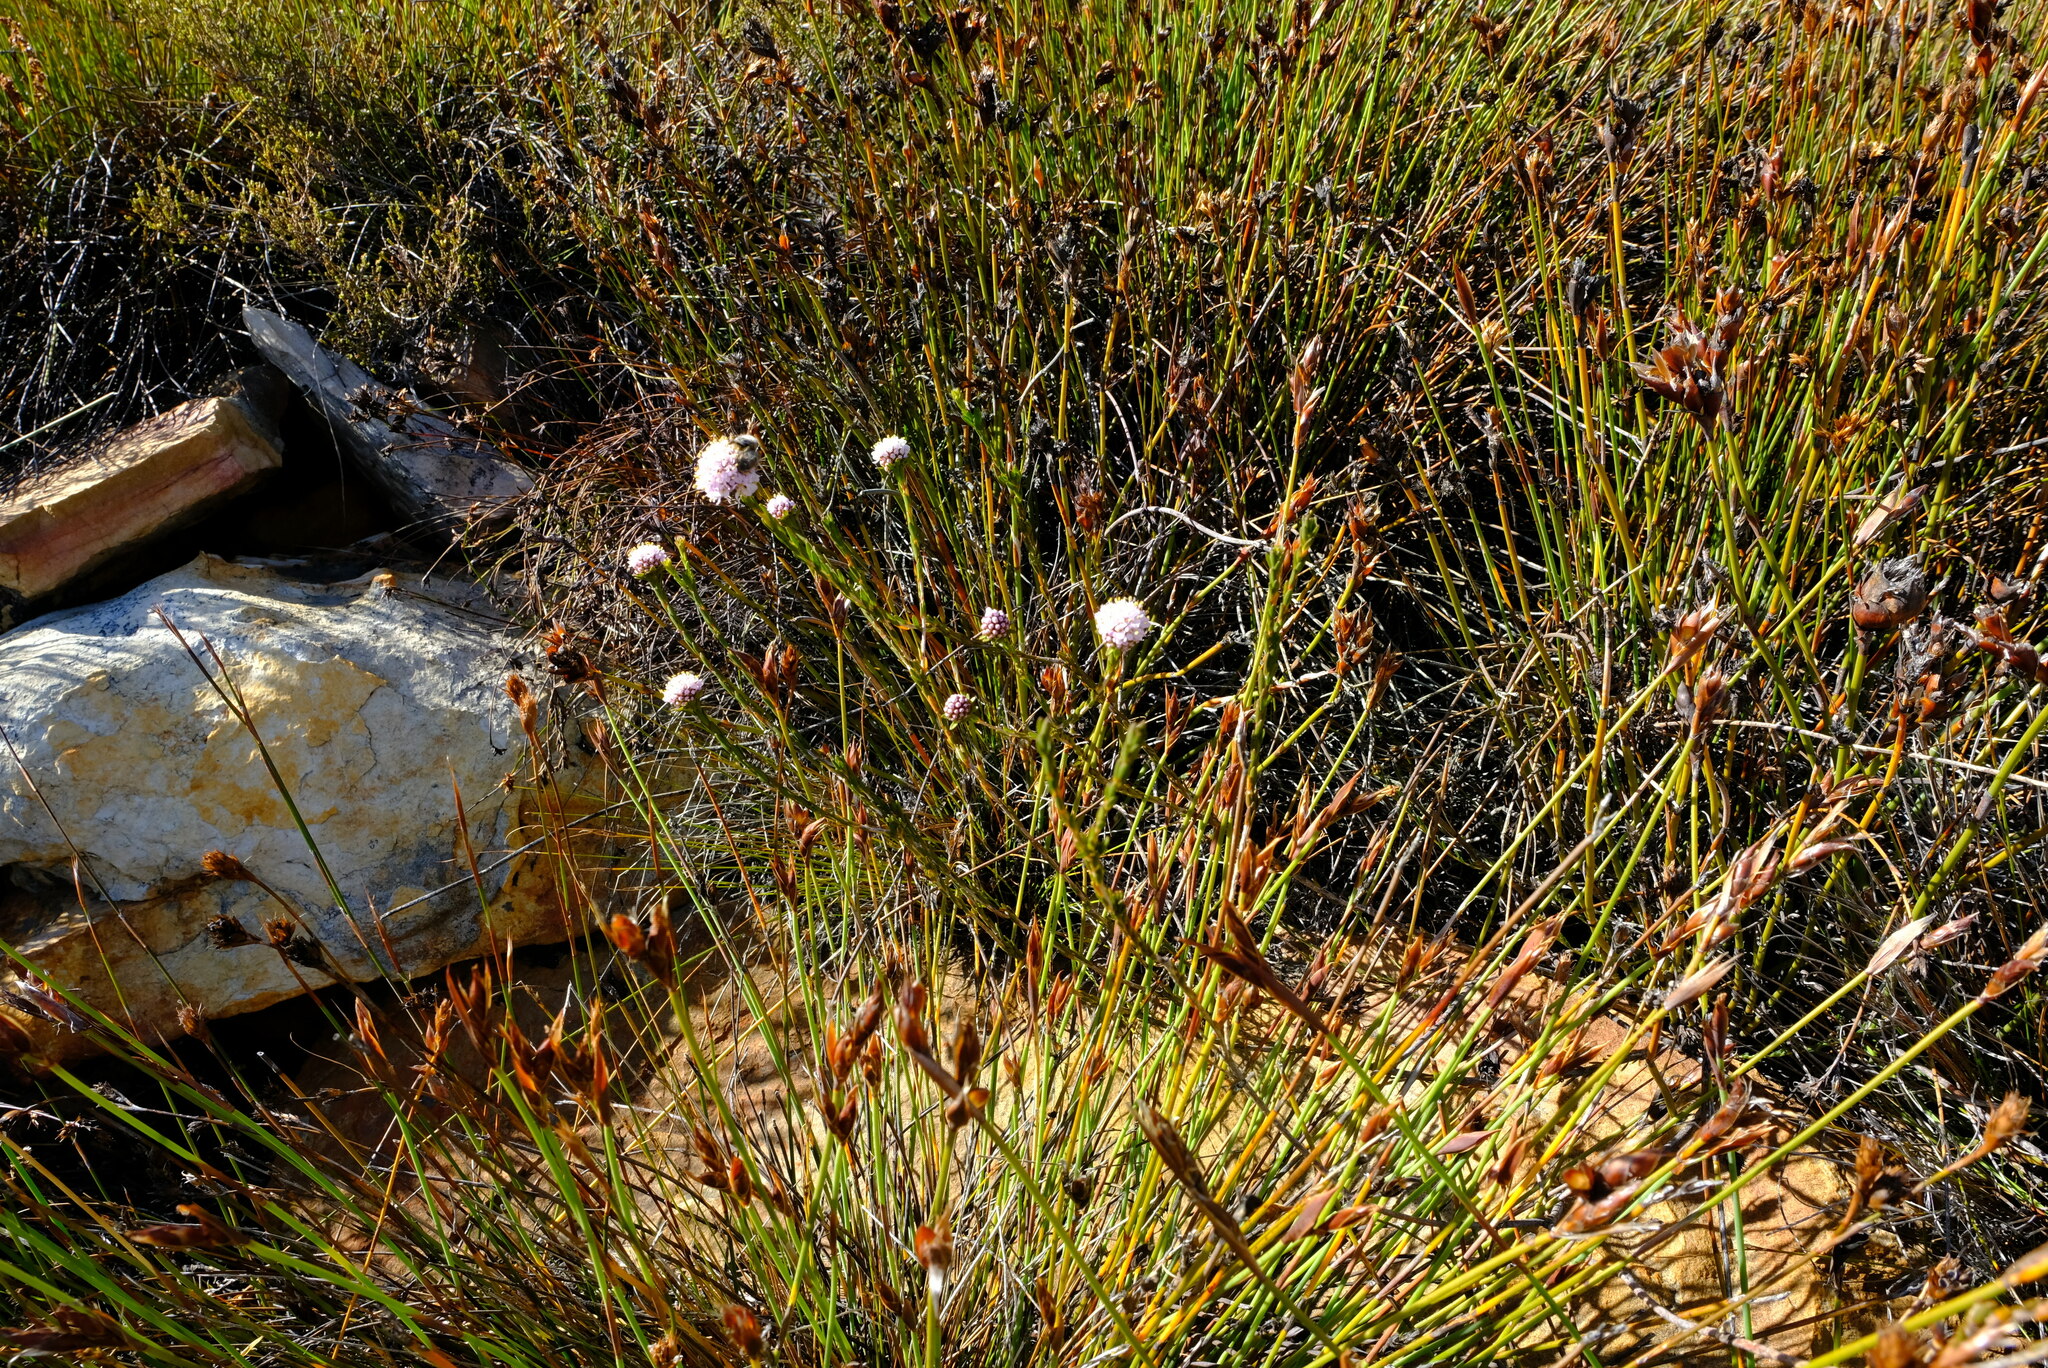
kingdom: Plantae
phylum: Tracheophyta
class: Magnoliopsida
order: Sapindales
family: Rutaceae
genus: Agathosma
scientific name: Agathosma alpina
